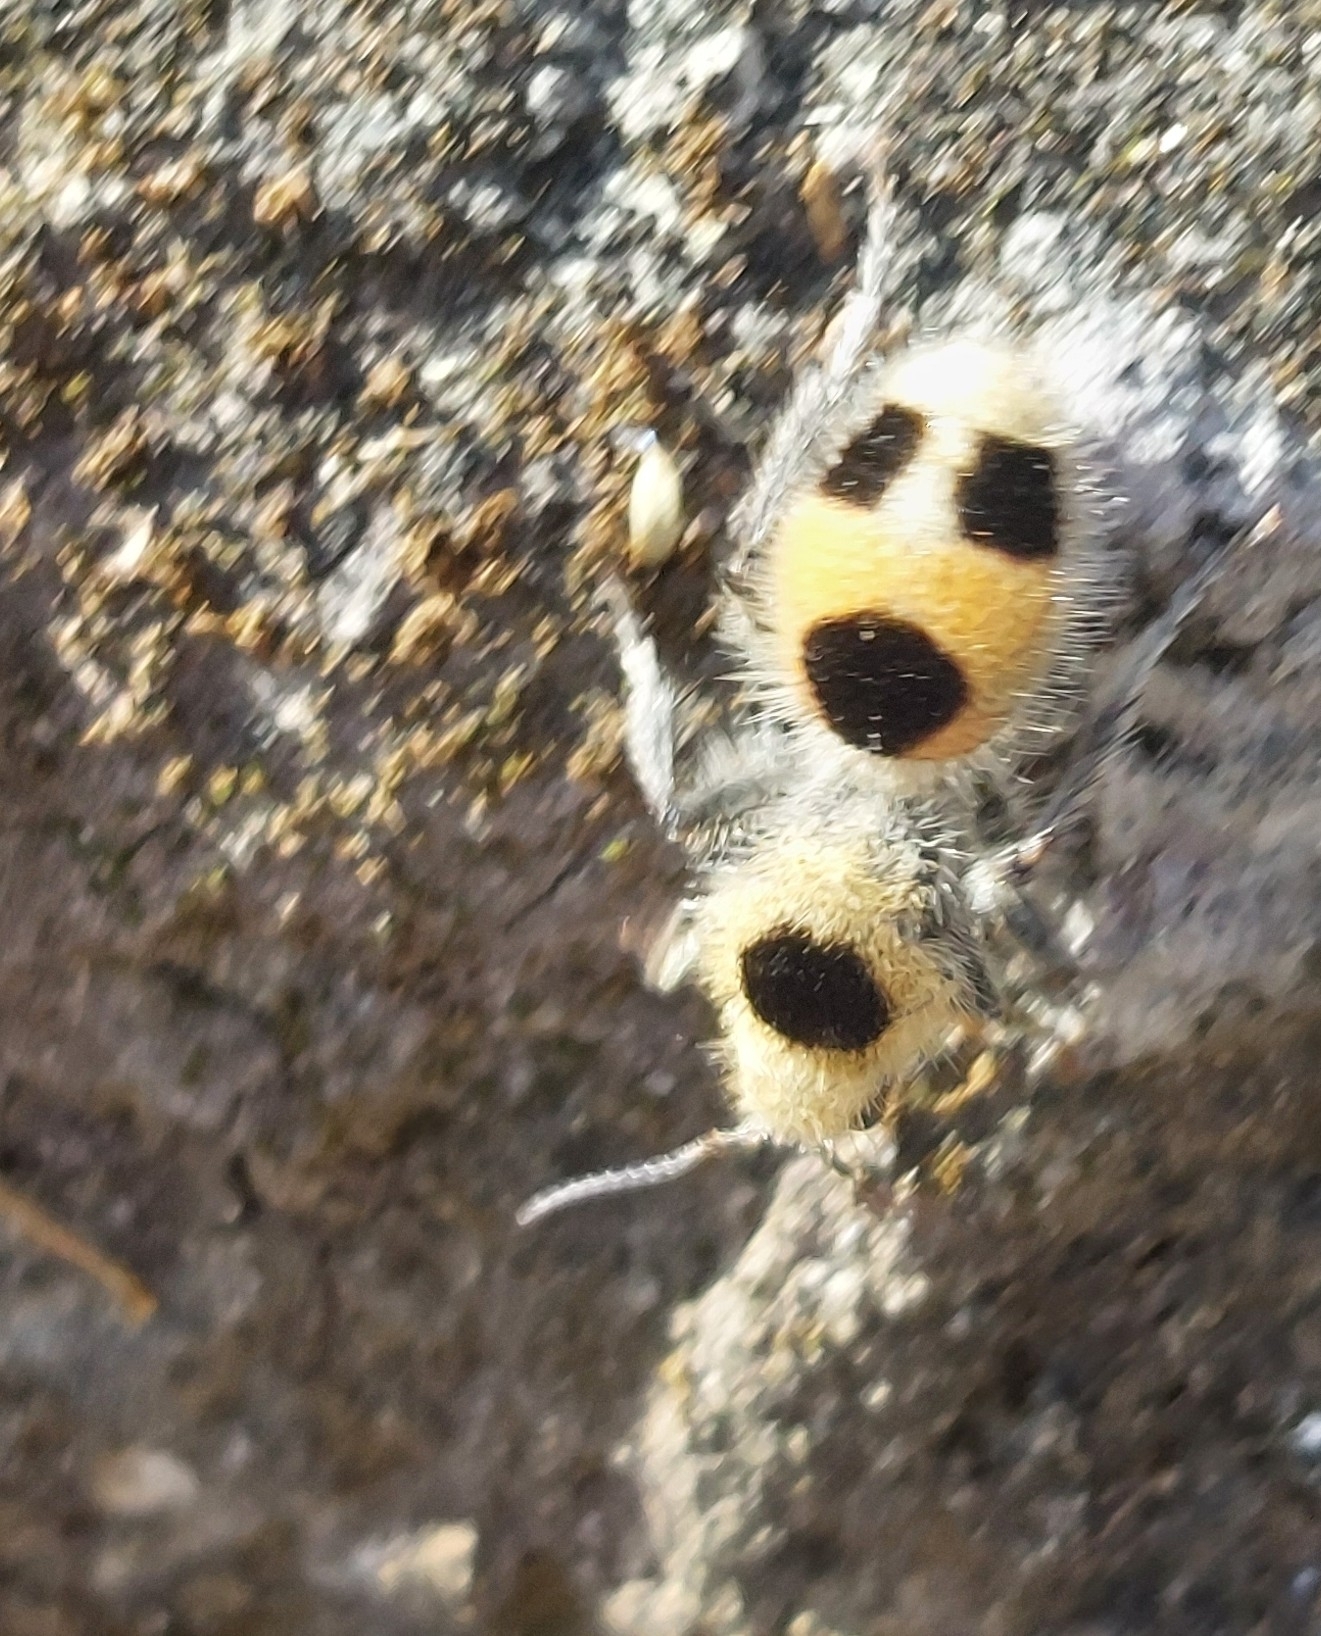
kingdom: Animalia
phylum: Arthropoda
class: Insecta
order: Hymenoptera
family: Mutillidae
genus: Dasymutilla
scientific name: Dasymutilla
